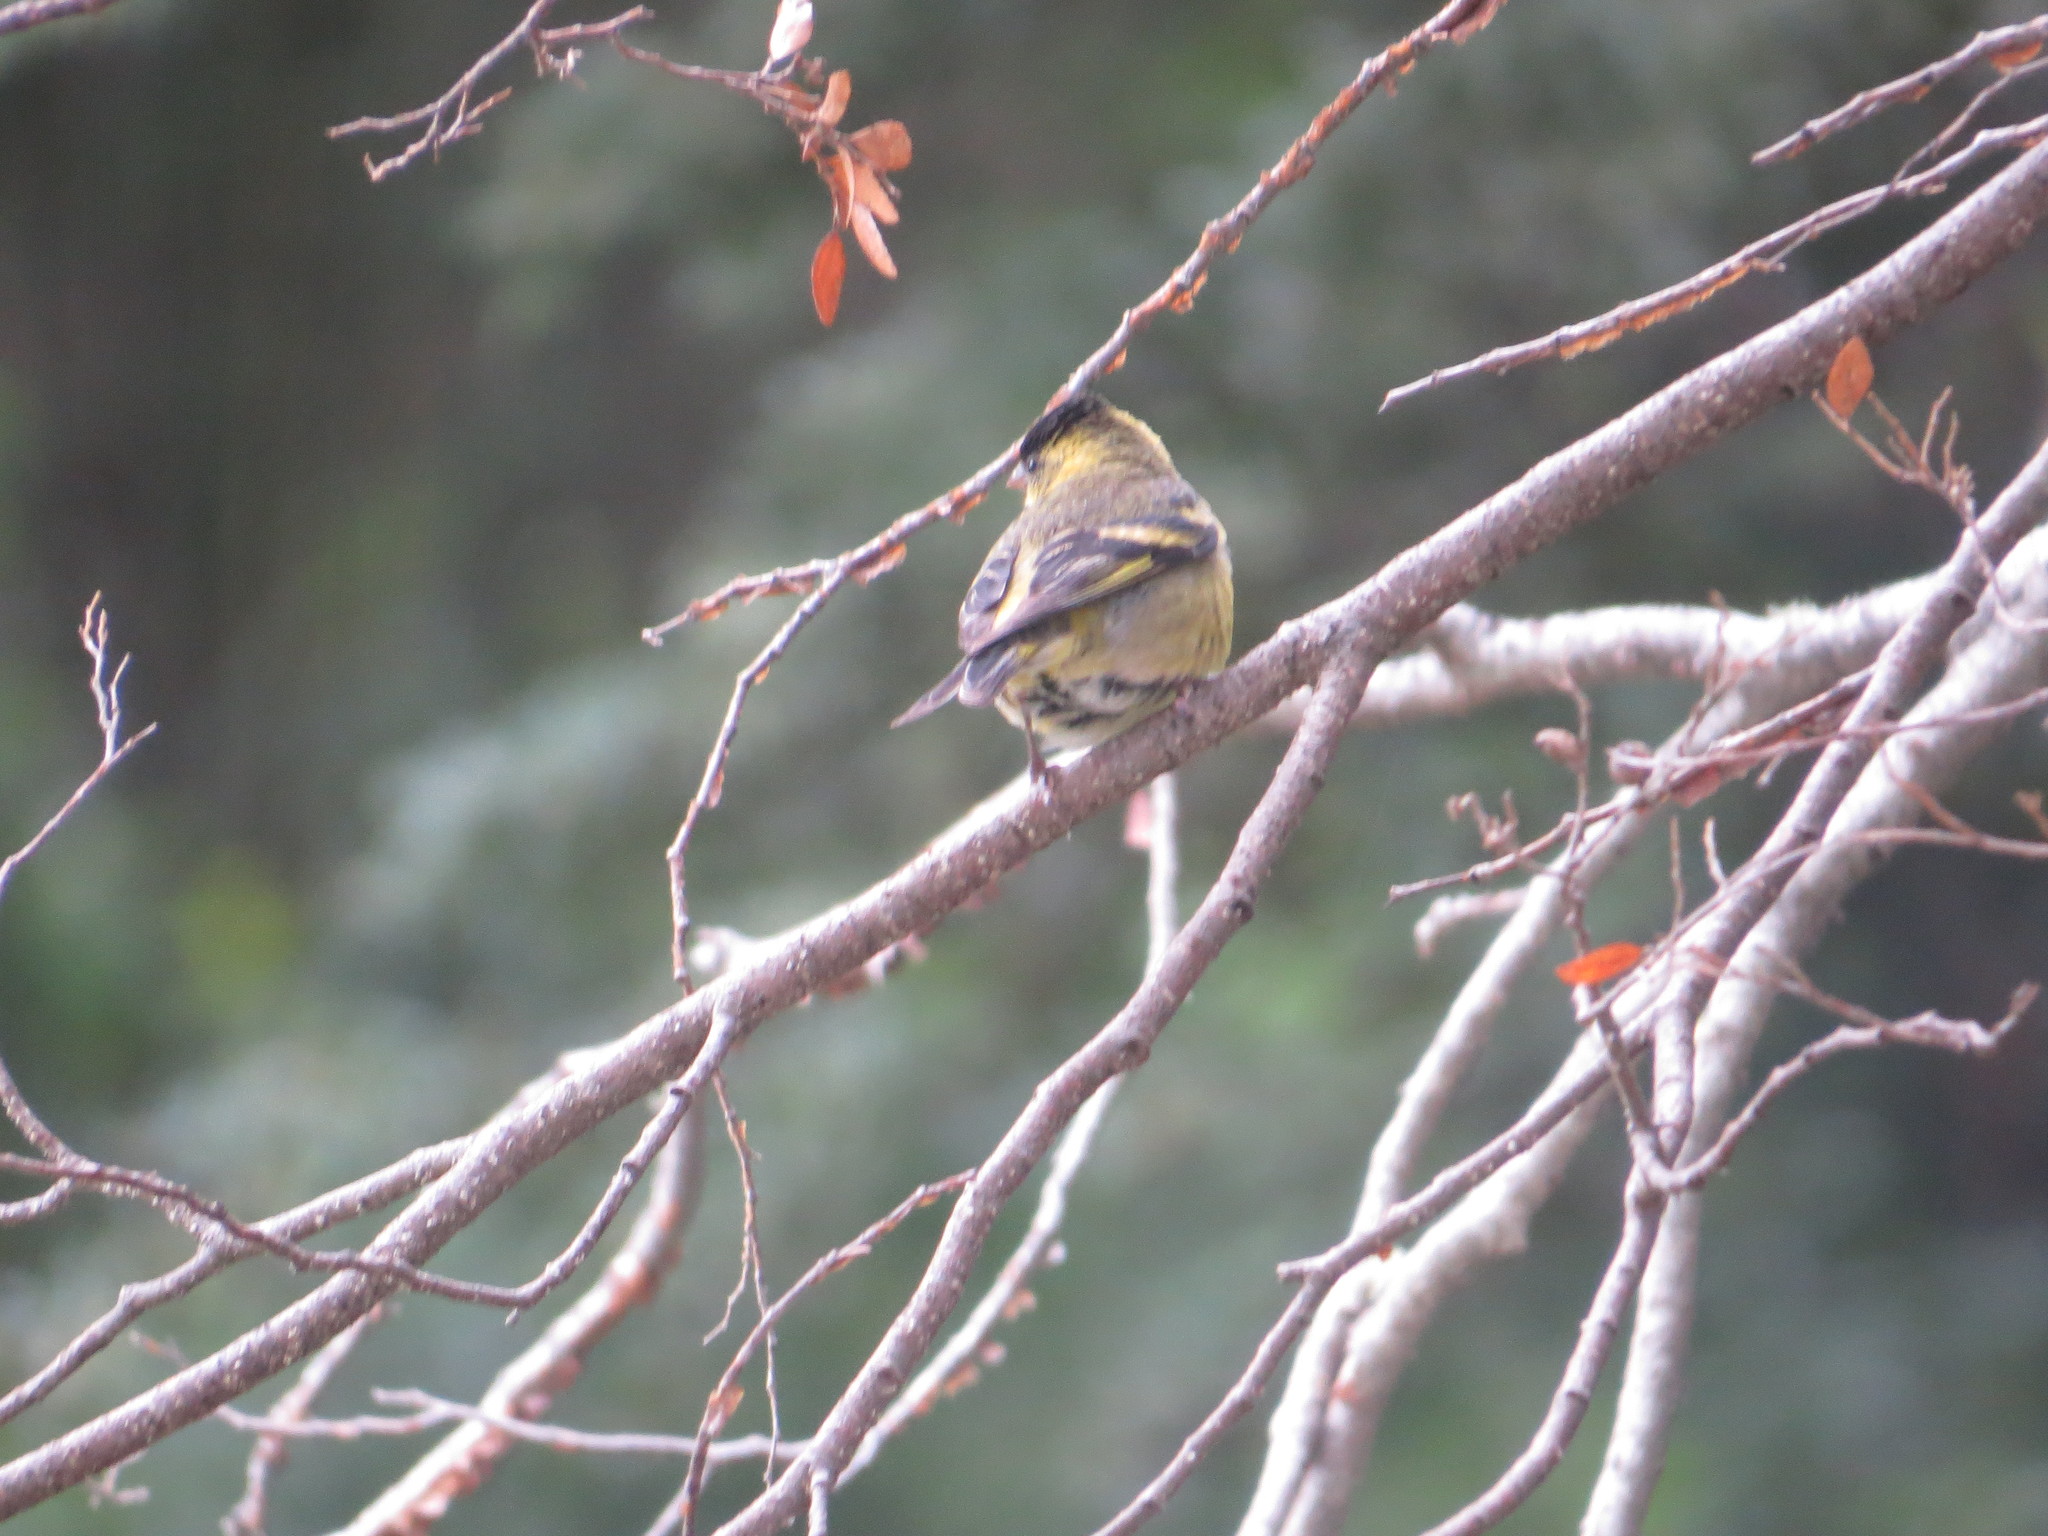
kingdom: Animalia
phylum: Chordata
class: Aves
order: Passeriformes
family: Fringillidae
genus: Spinus
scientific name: Spinus barbatus
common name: Black-chinned siskin
